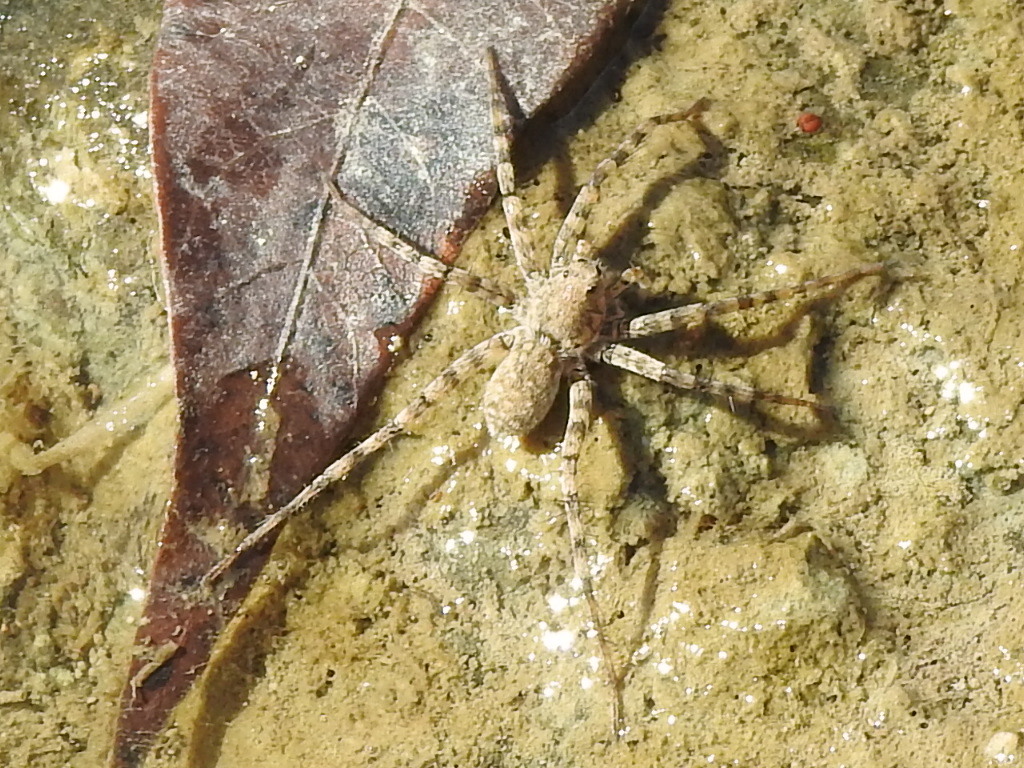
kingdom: Animalia
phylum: Arthropoda
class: Arachnida
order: Araneae
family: Lycosidae
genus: Pardosa
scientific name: Pardosa mercurialis
